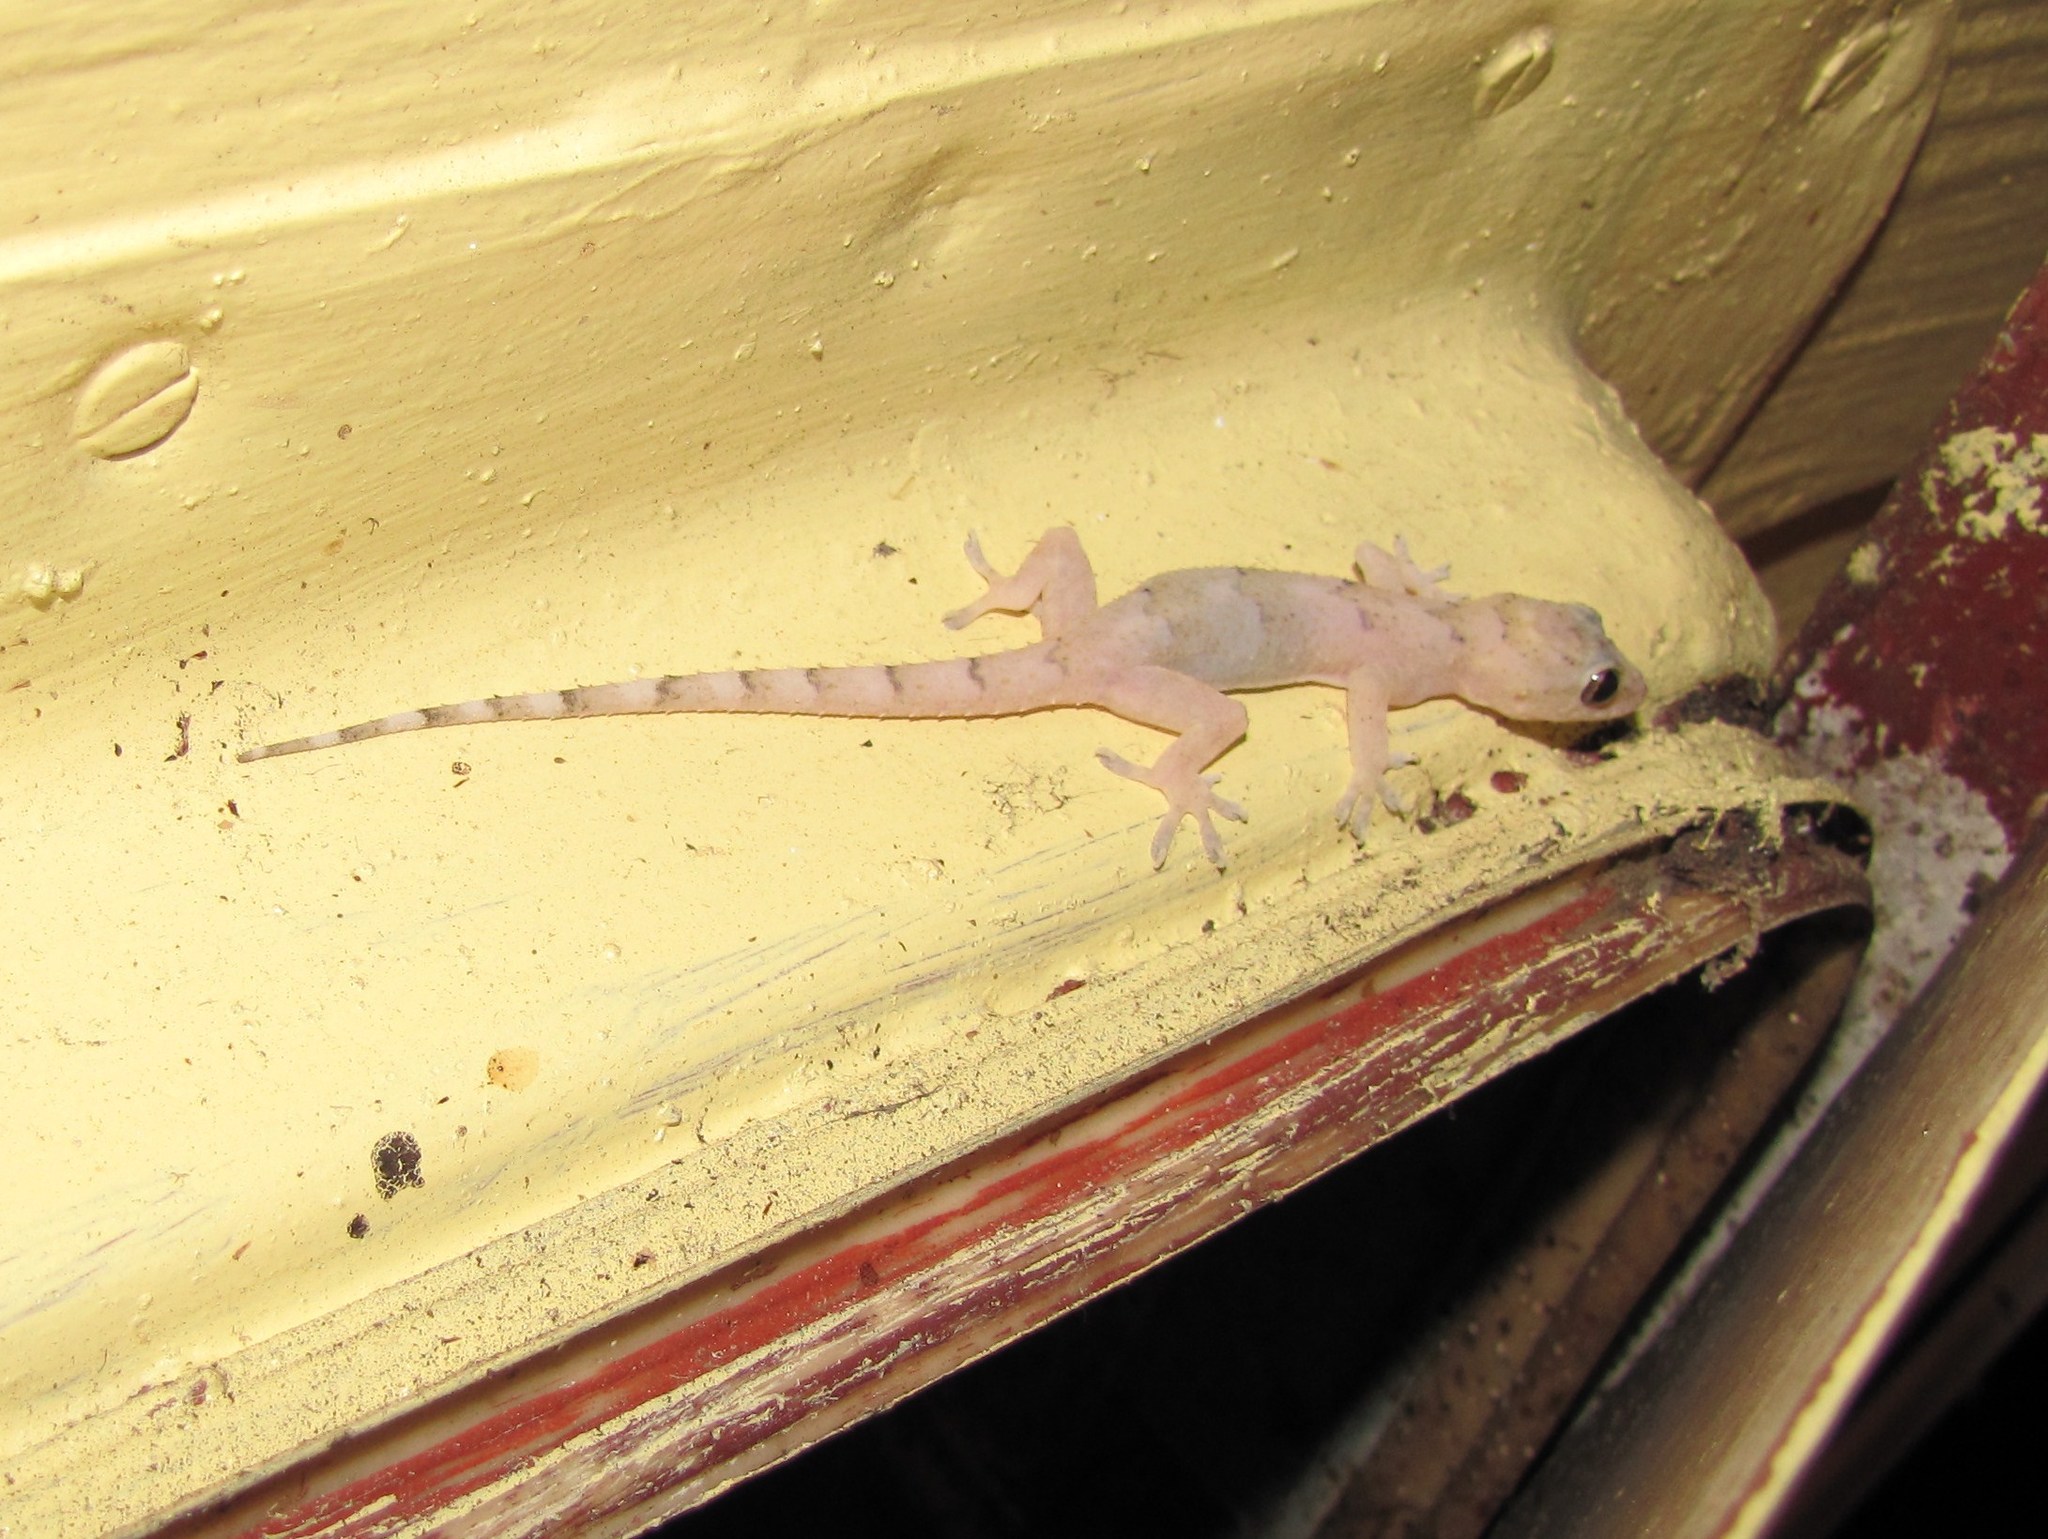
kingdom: Animalia
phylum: Chordata
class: Squamata
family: Gekkonidae
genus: Hemidactylus
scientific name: Hemidactylus mabouia
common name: House gecko
